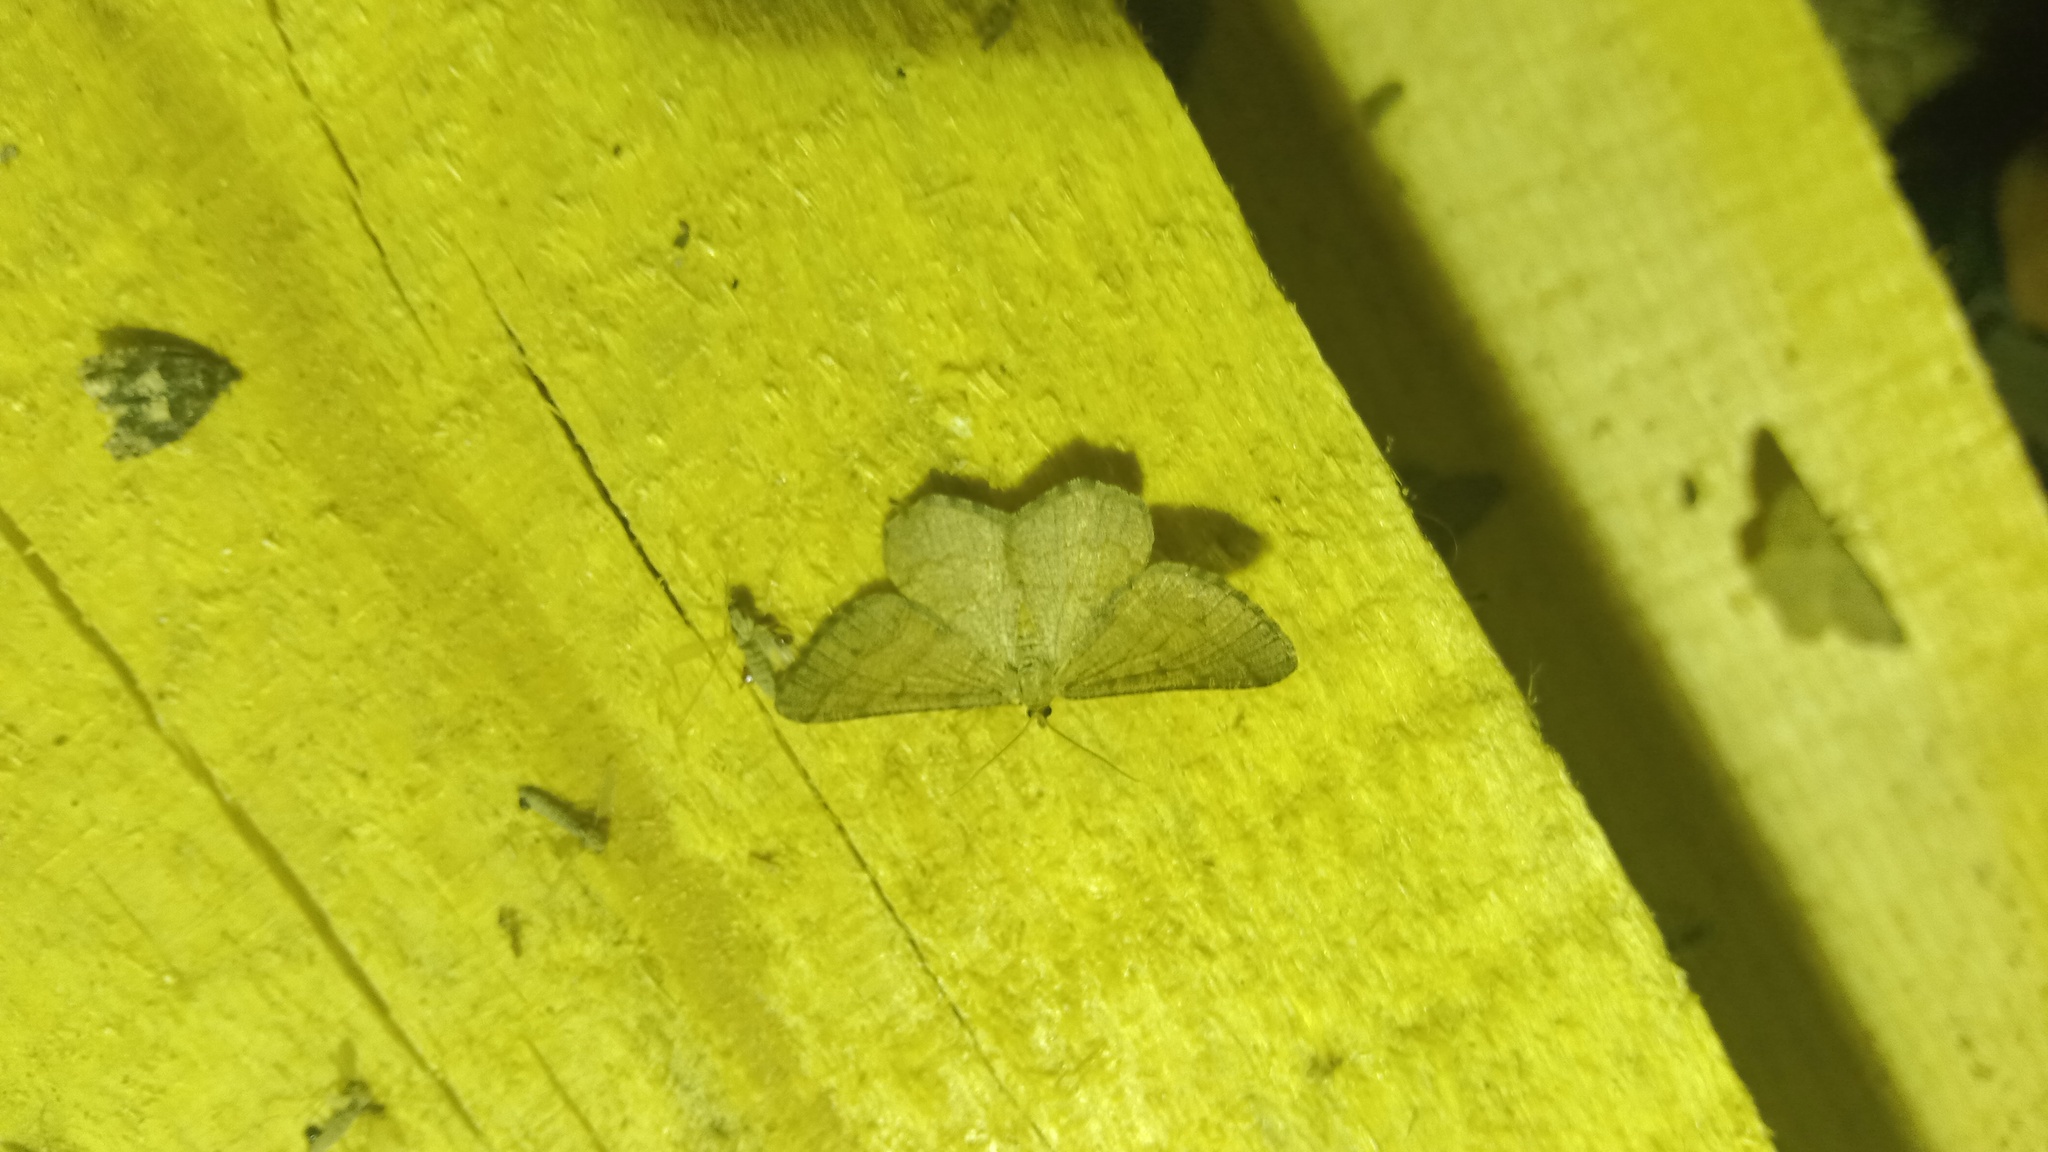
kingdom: Animalia
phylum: Arthropoda
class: Insecta
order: Lepidoptera
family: Geometridae
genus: Tephrina
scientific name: Tephrina murinaria
